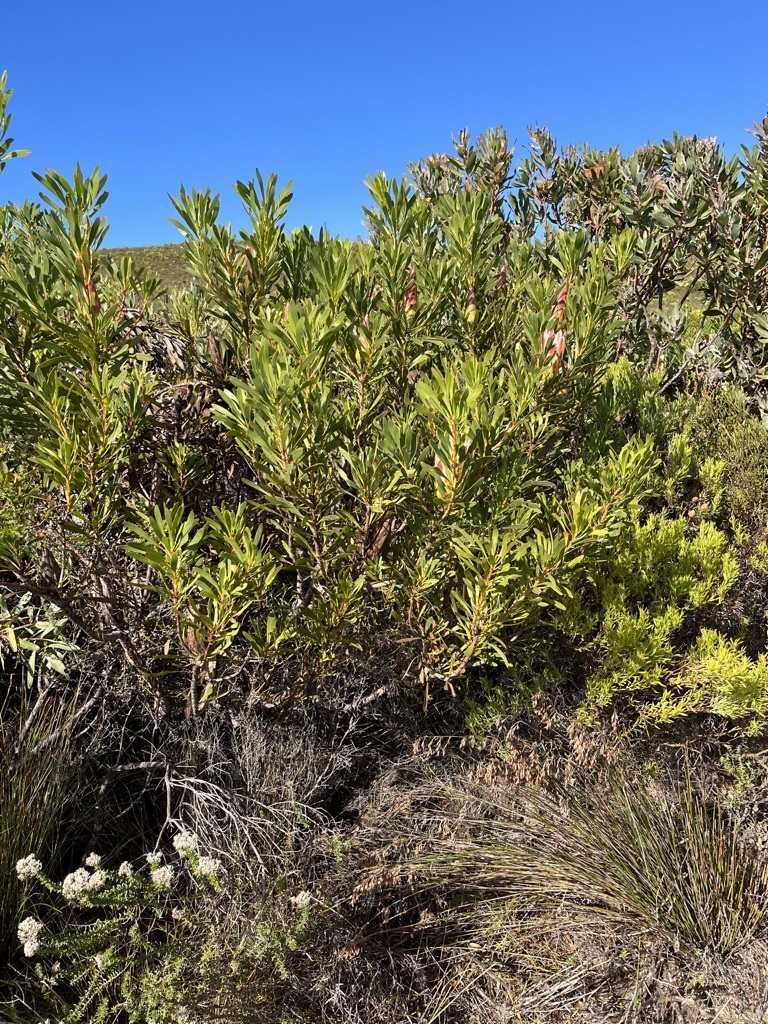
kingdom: Plantae
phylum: Tracheophyta
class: Magnoliopsida
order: Proteales
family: Proteaceae
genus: Protea
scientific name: Protea repens
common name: Sugarbush
